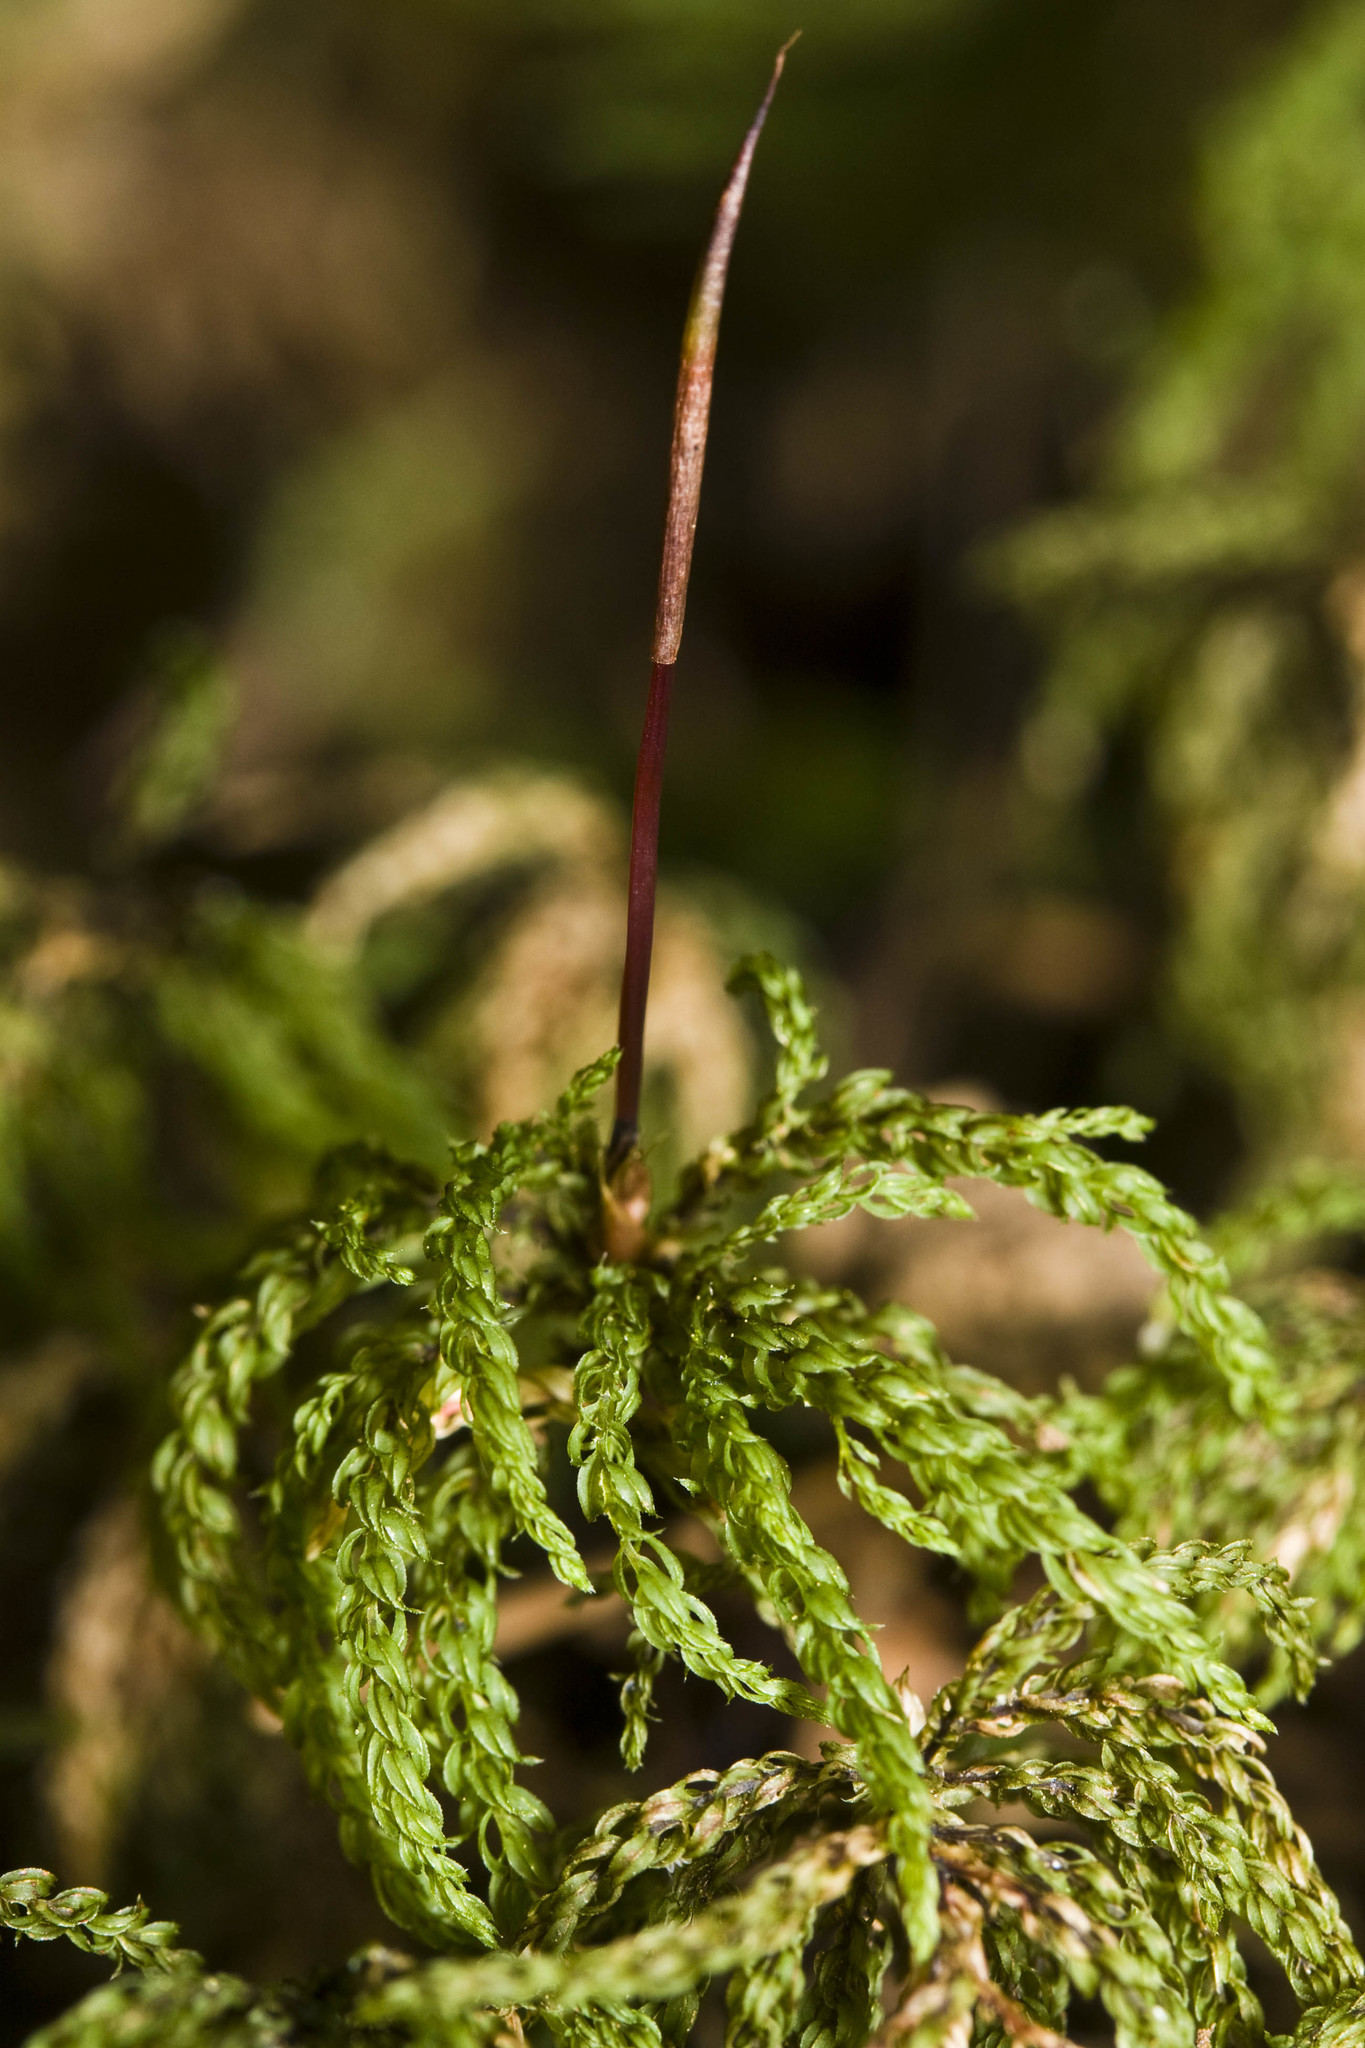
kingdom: Plantae
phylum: Bryophyta
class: Bryopsida
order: Bryales
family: Mniaceae
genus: Leucolepis
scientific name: Leucolepis acanthoneura
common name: Leucolepis umbrella moss
